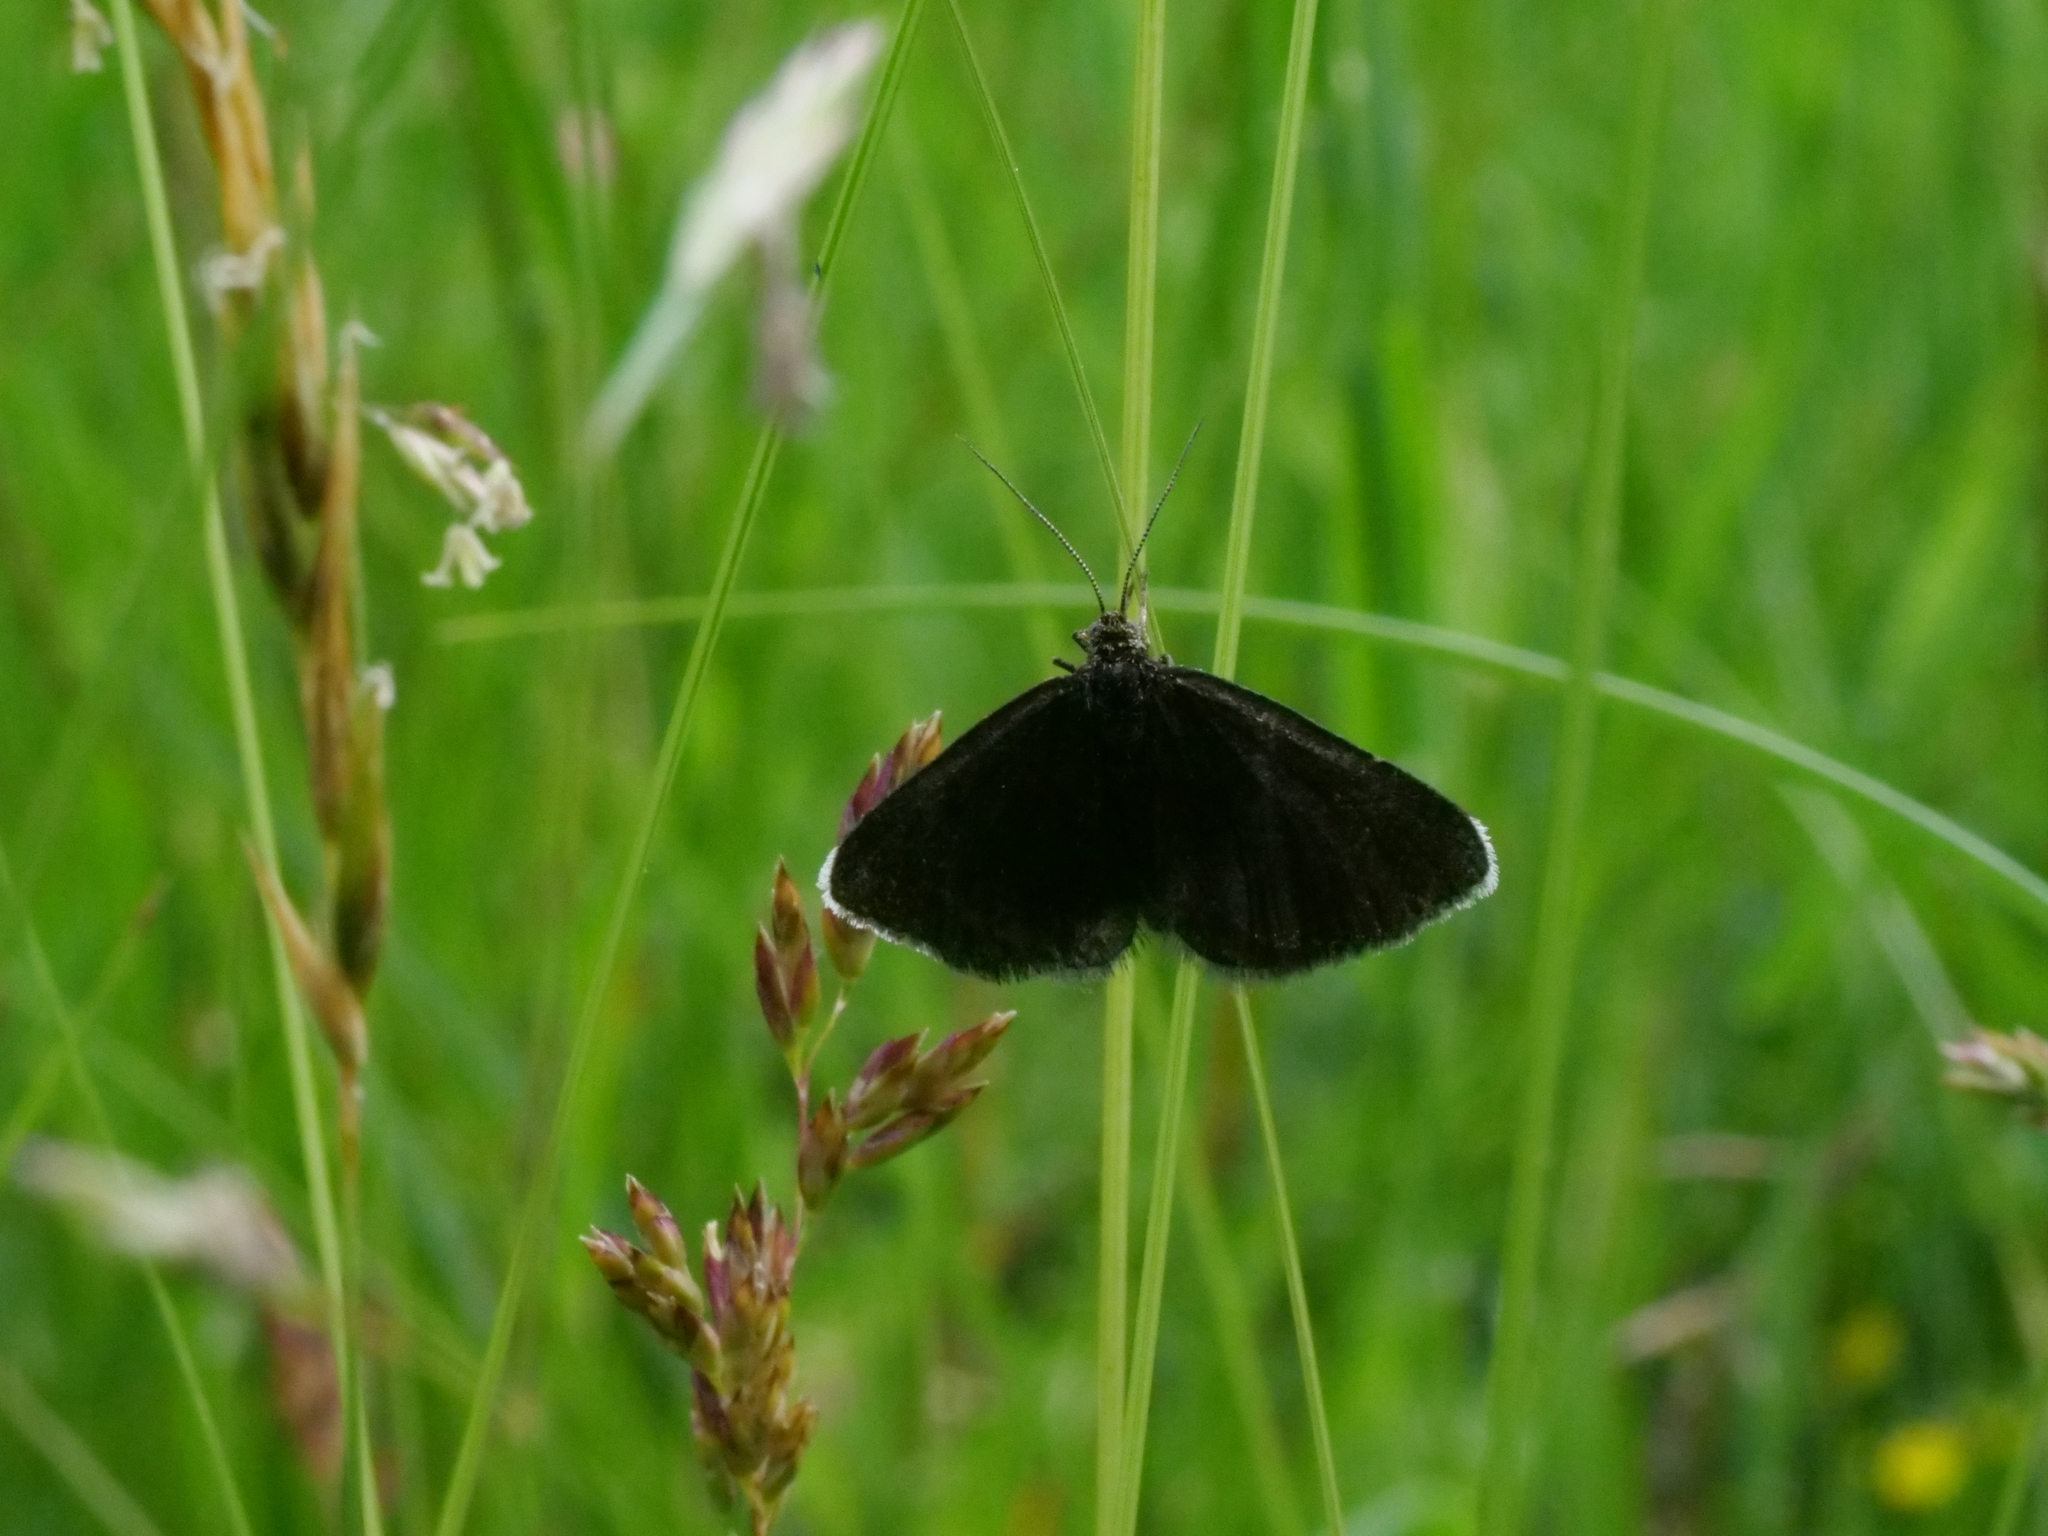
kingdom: Animalia
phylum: Arthropoda
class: Insecta
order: Lepidoptera
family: Geometridae
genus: Odezia
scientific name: Odezia atrata
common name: Chimney sweeper
